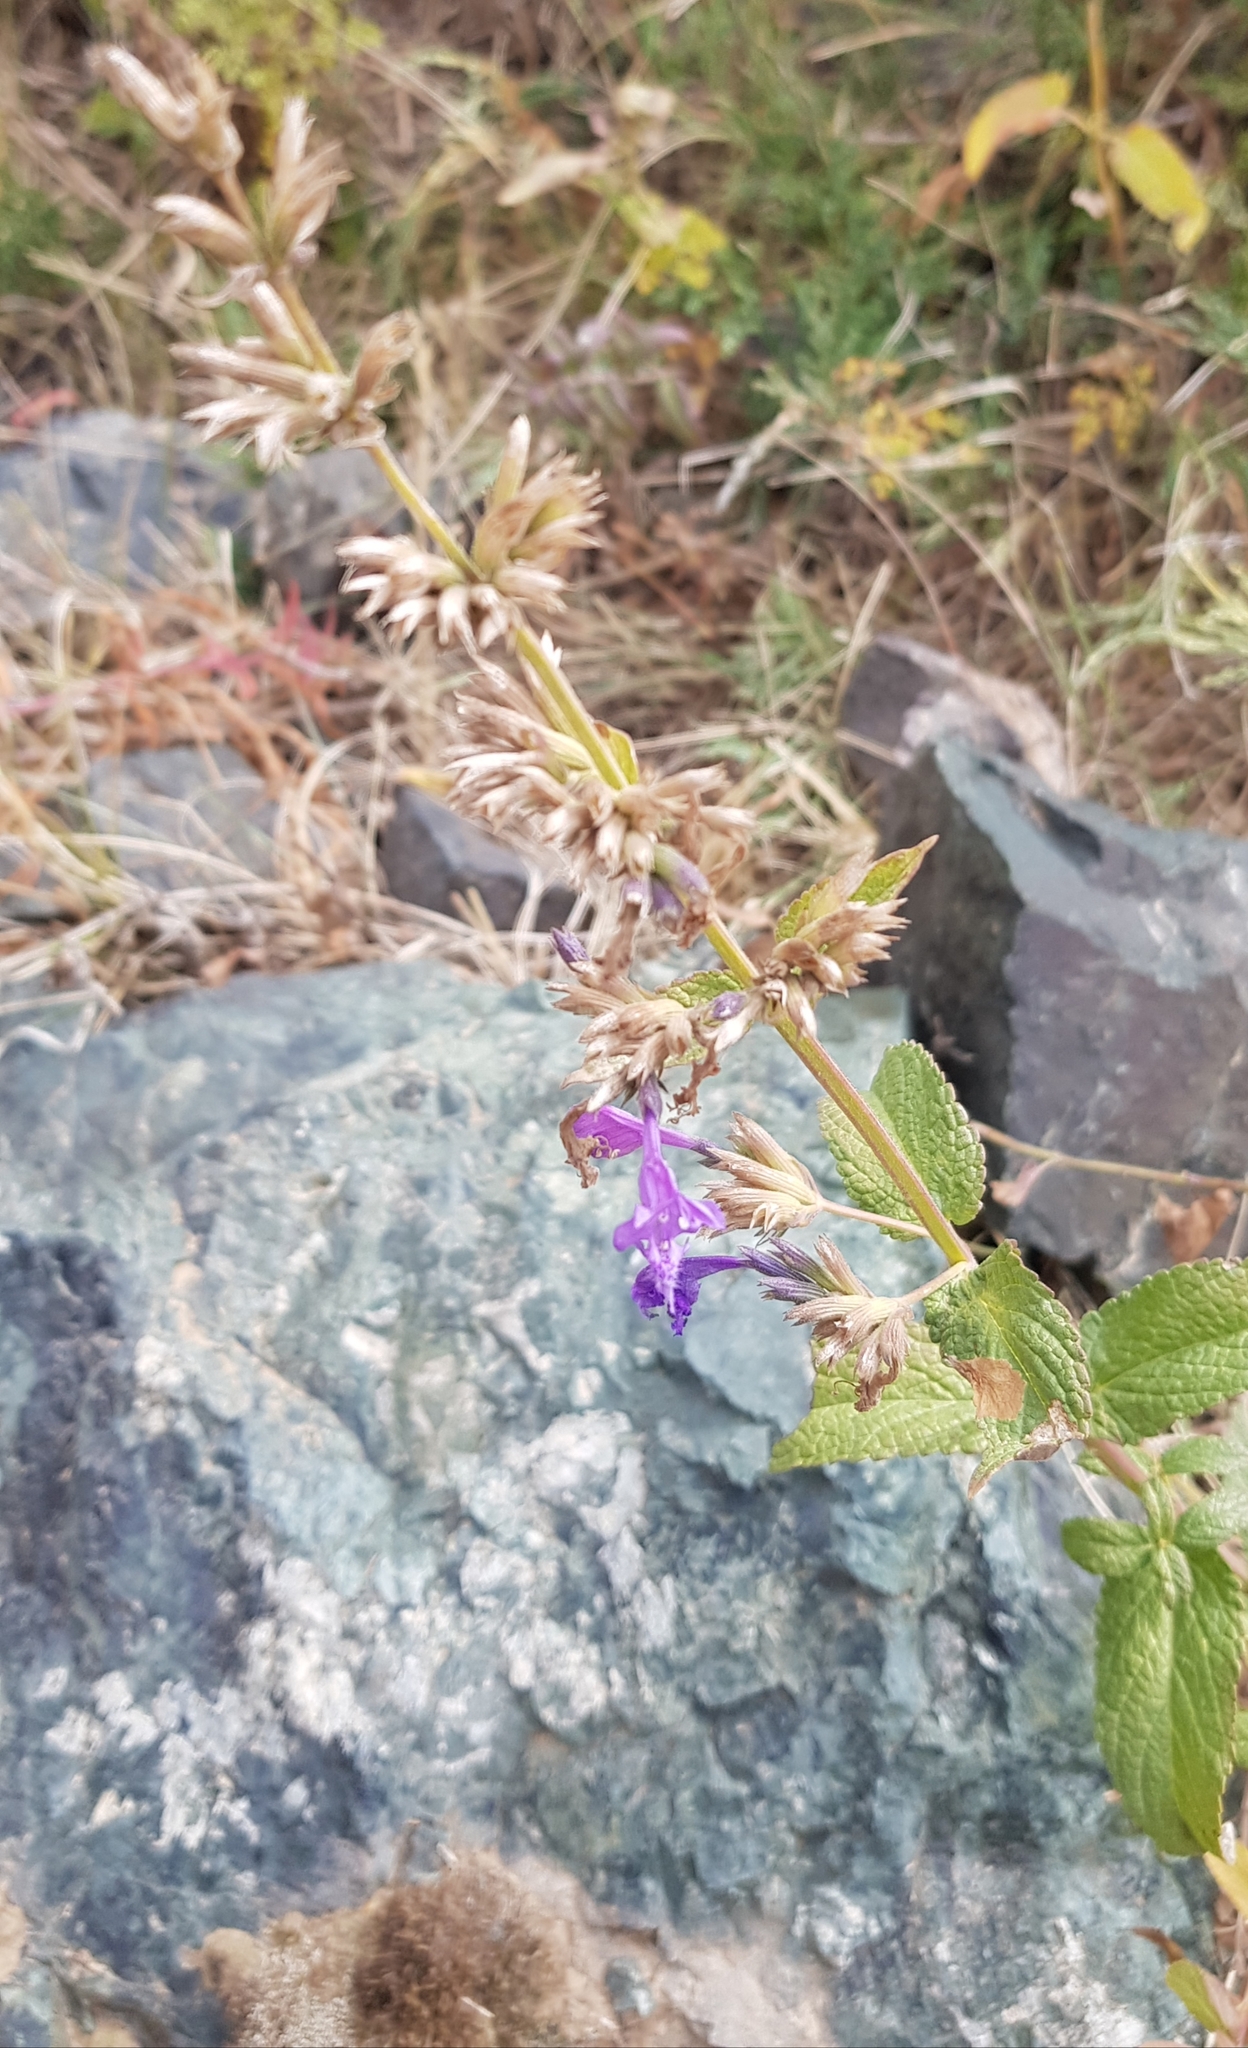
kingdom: Plantae
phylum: Tracheophyta
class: Magnoliopsida
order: Lamiales
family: Lamiaceae
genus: Dracocephalum
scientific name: Dracocephalum nutans
